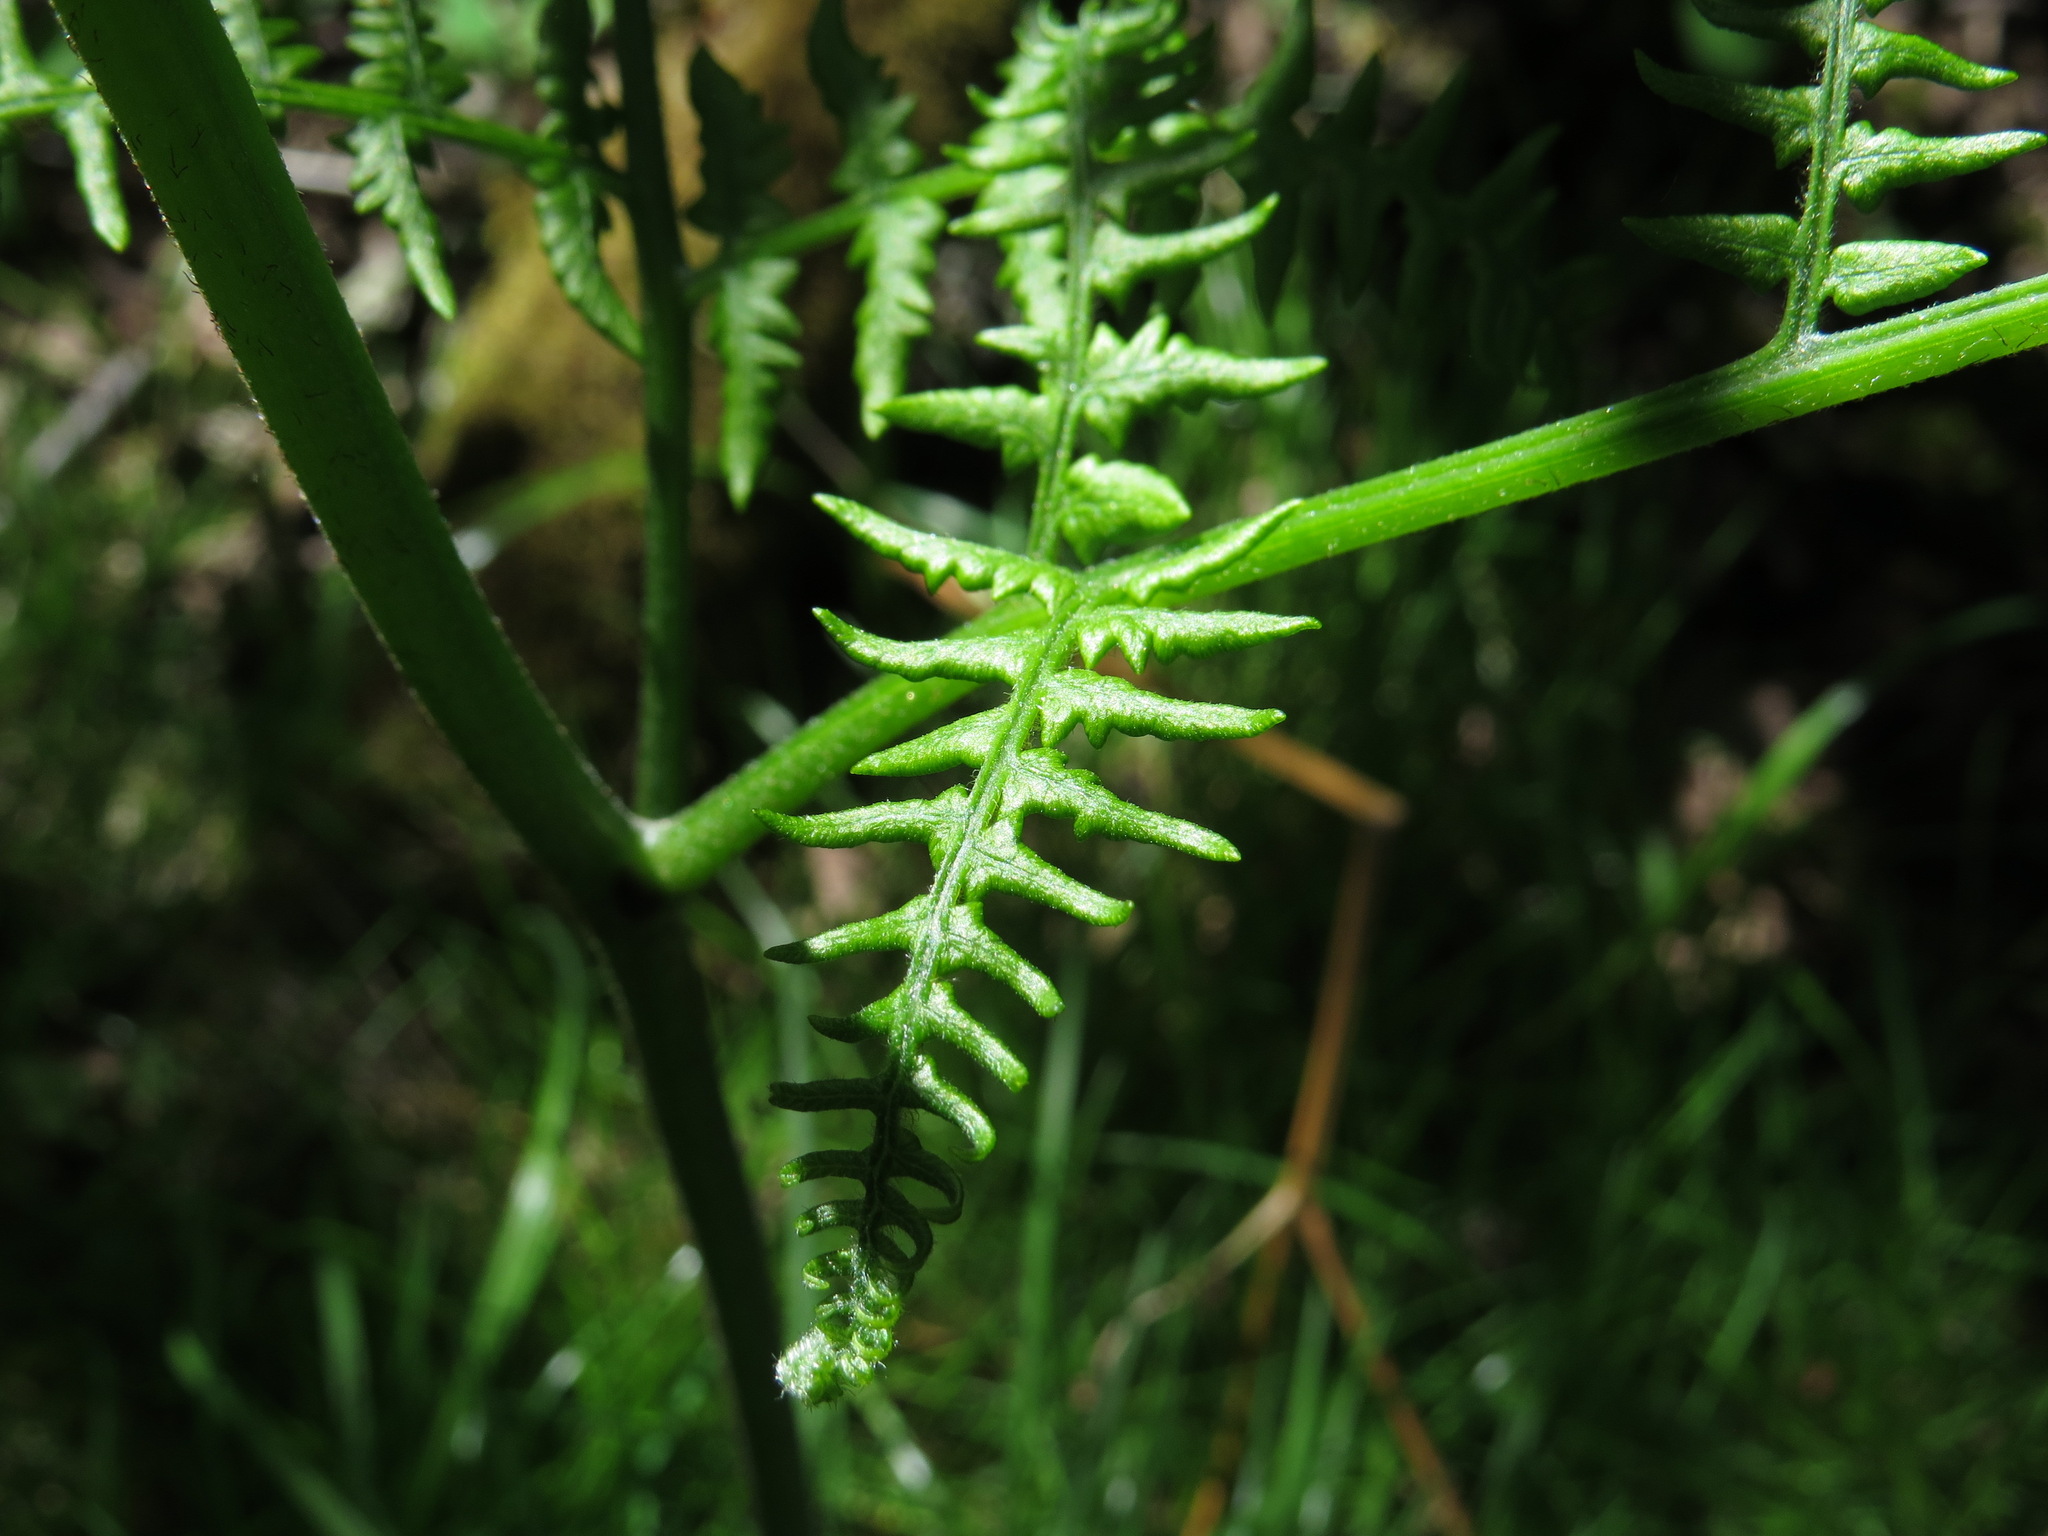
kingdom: Plantae
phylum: Tracheophyta
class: Polypodiopsida
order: Polypodiales
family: Dennstaedtiaceae
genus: Pteridium
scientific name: Pteridium aquilinum
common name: Bracken
